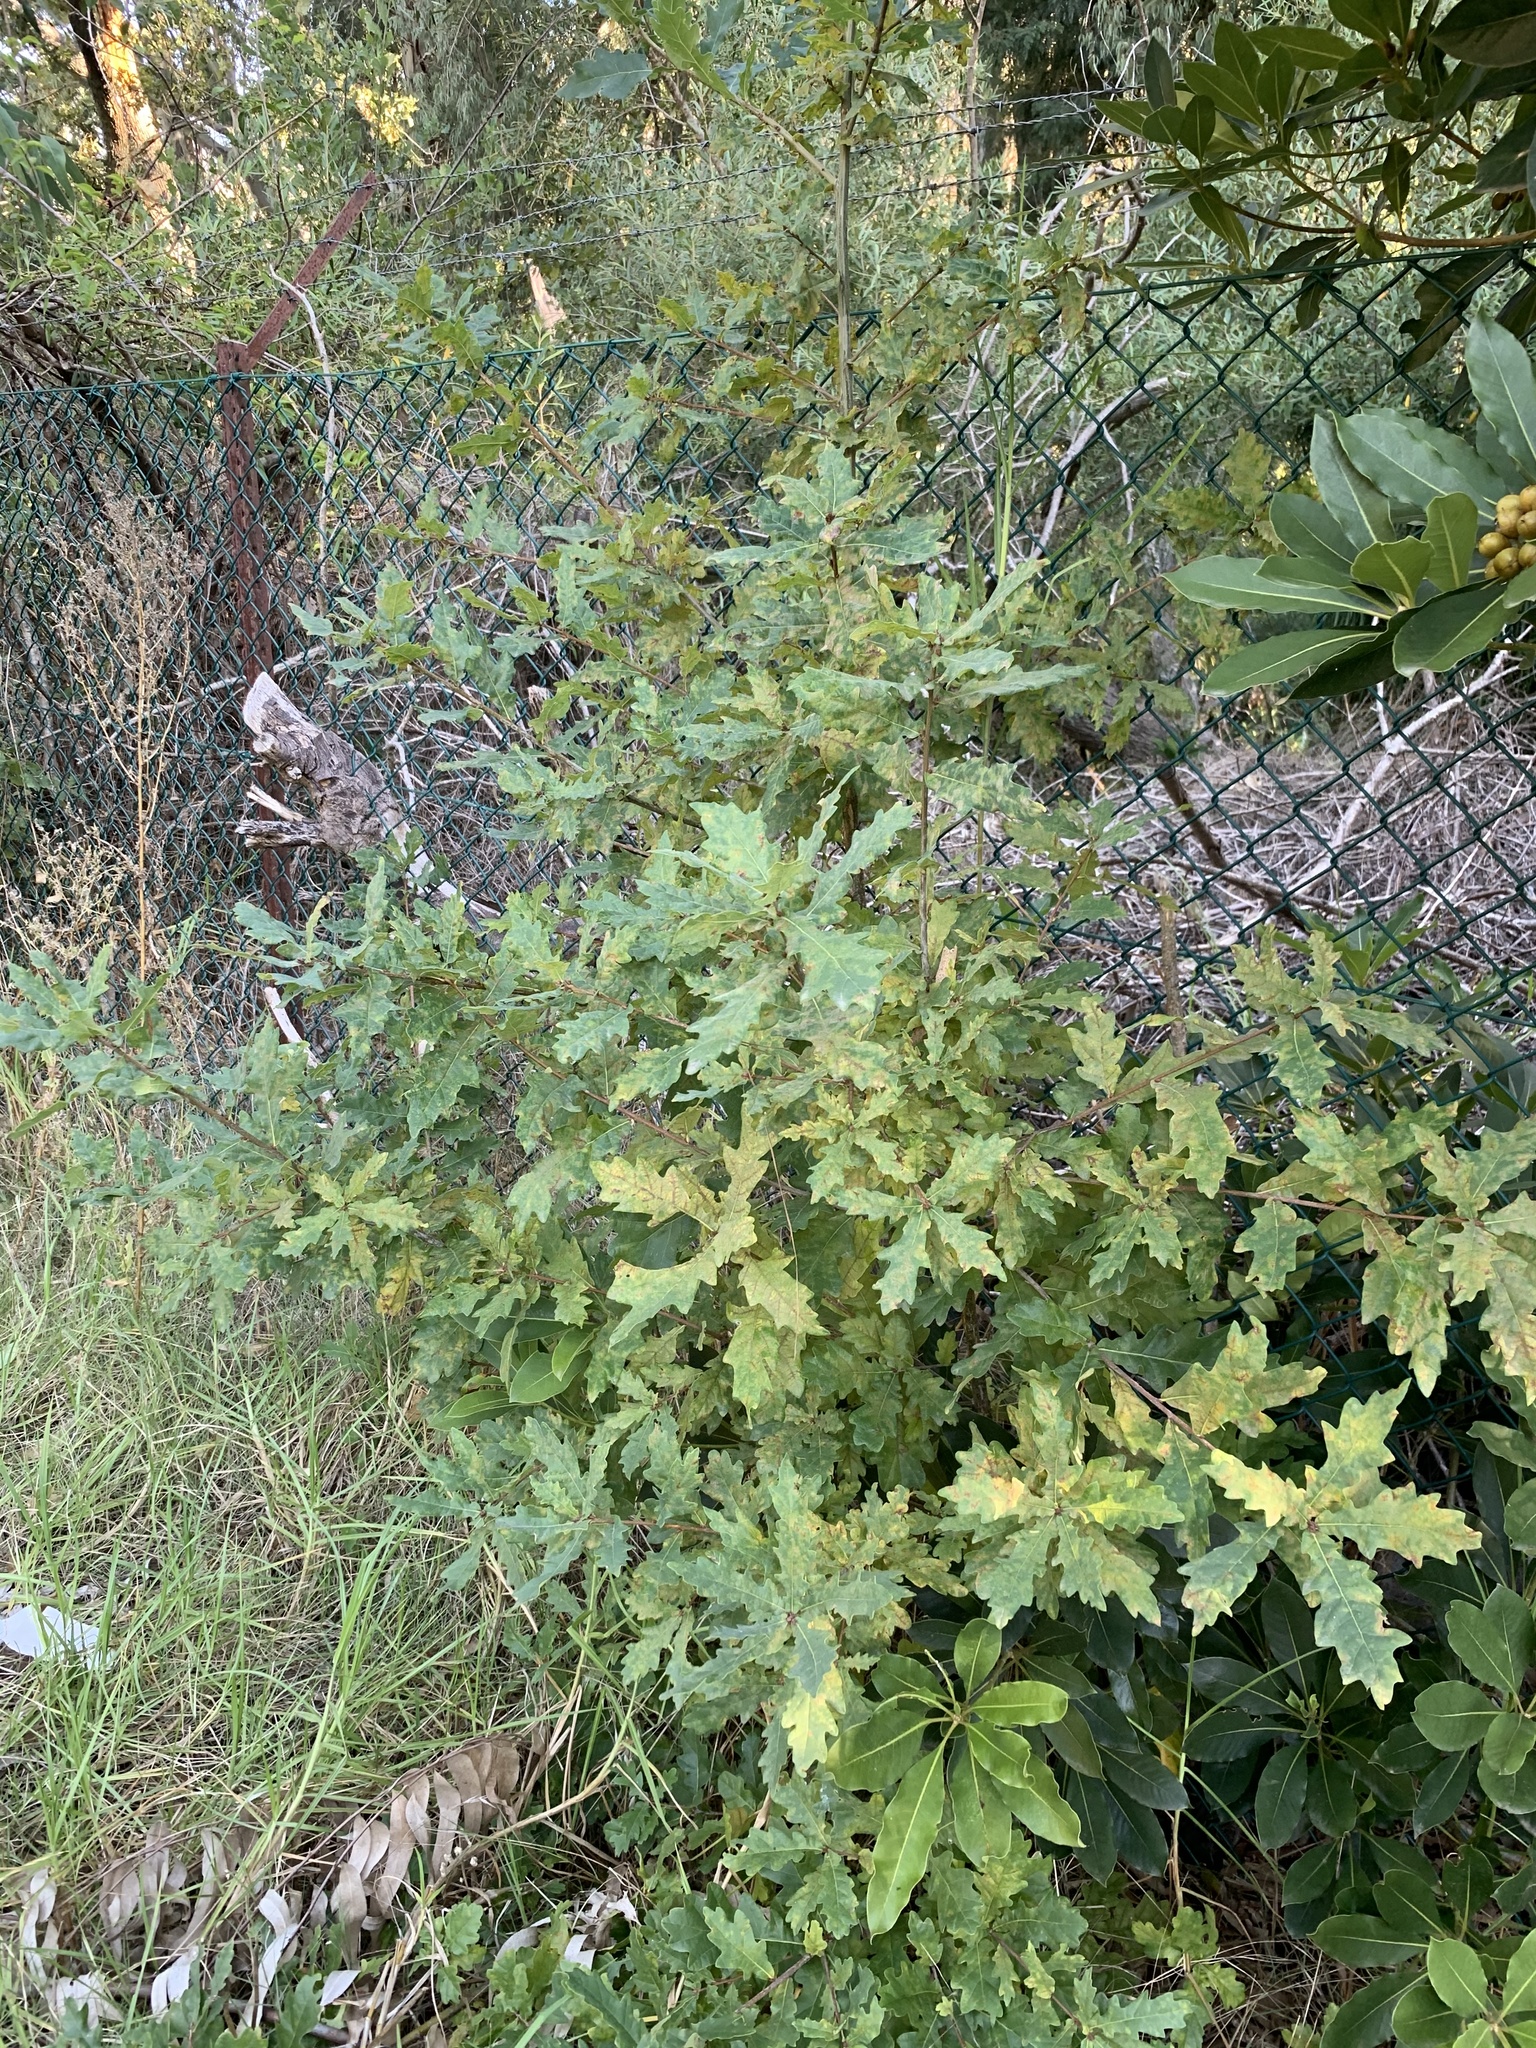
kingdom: Plantae
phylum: Tracheophyta
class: Magnoliopsida
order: Fagales
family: Fagaceae
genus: Quercus
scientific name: Quercus robur
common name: Pedunculate oak
